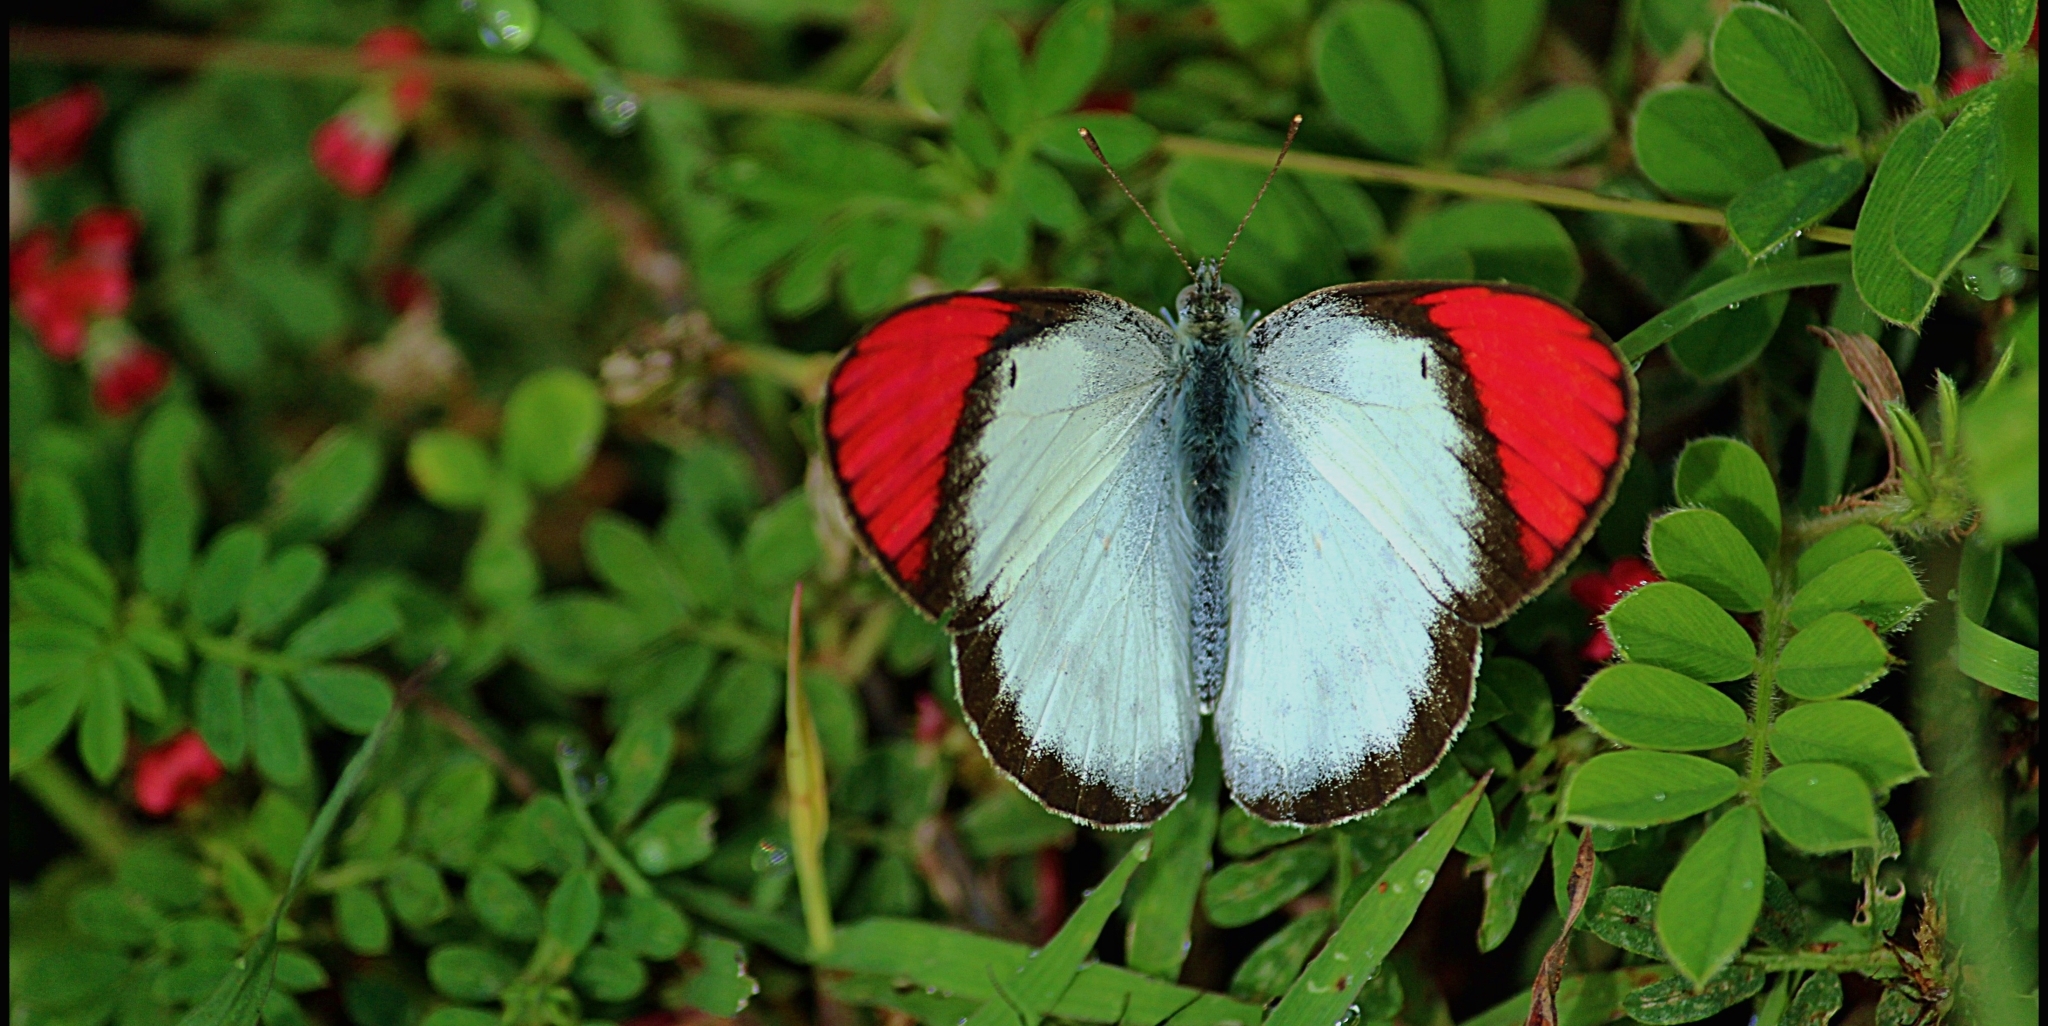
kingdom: Animalia
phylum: Arthropoda
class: Insecta
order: Lepidoptera
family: Pieridae
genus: Colotis
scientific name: Colotis danae
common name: Crimson tip
